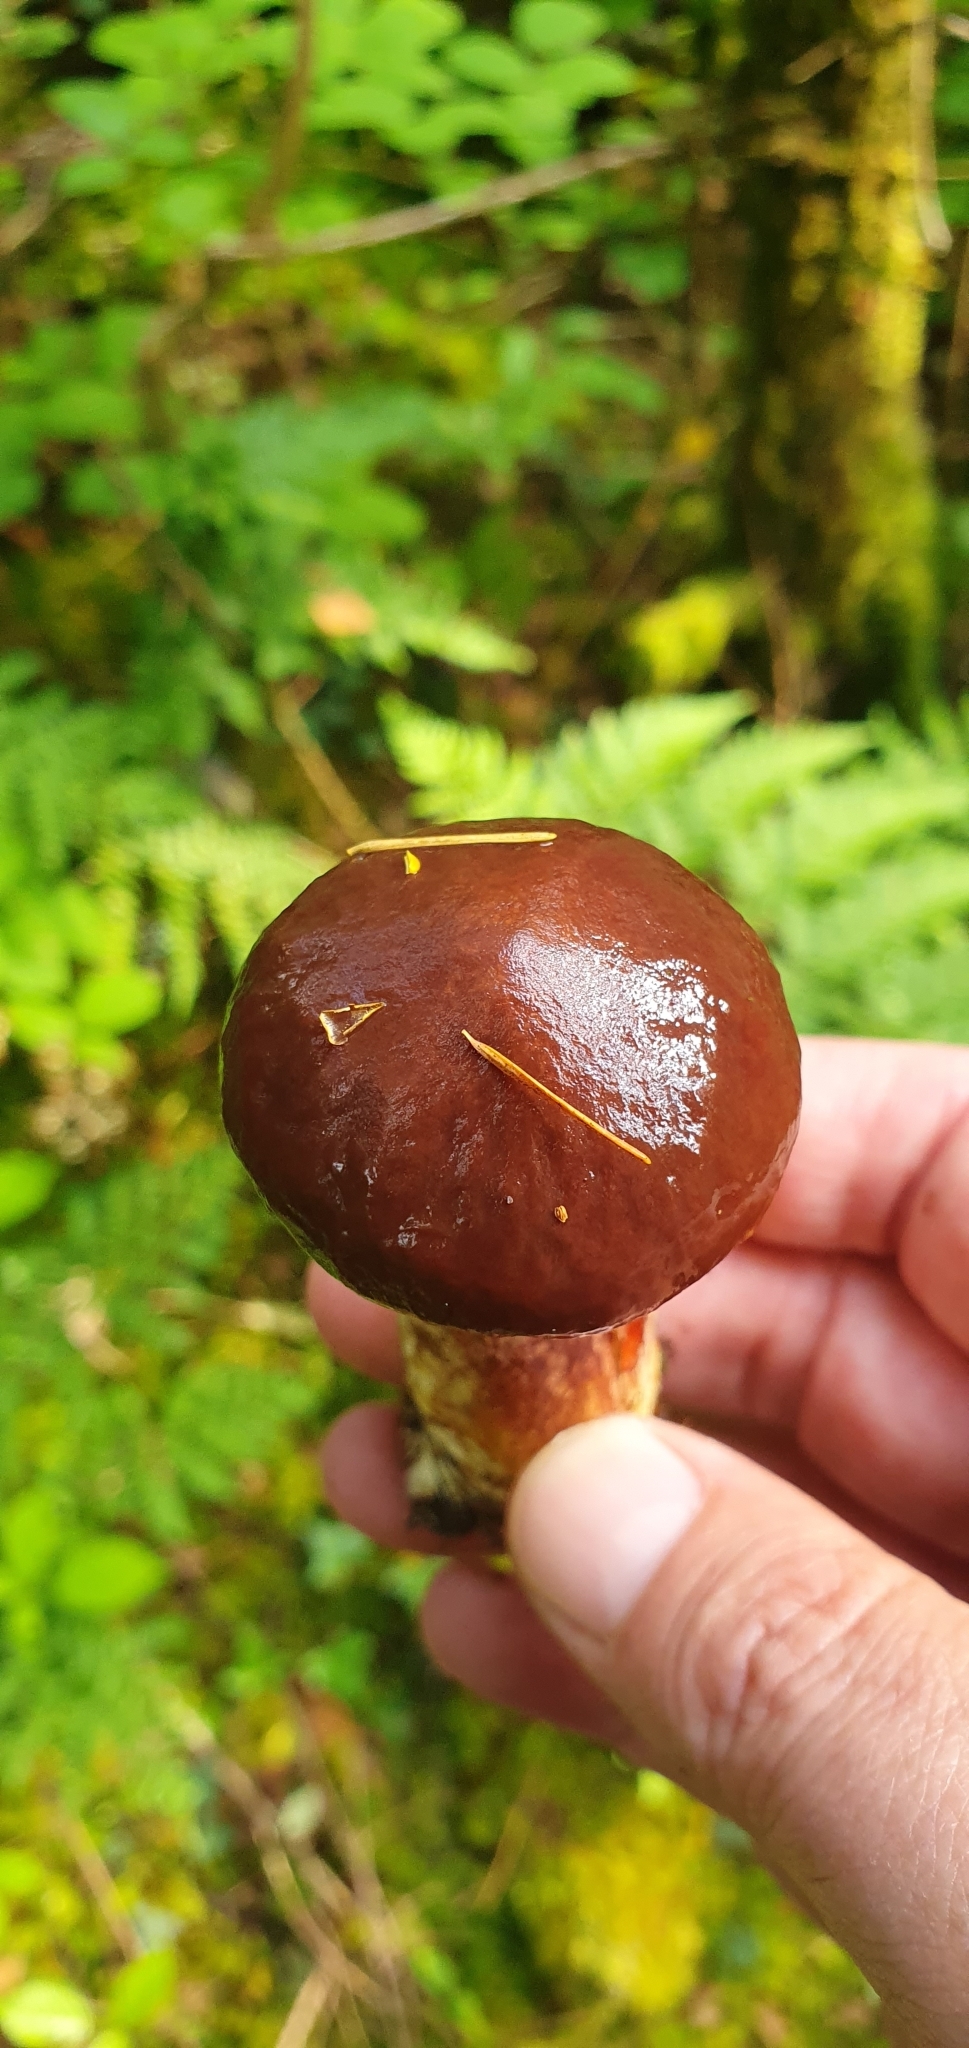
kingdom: Fungi
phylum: Basidiomycota
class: Agaricomycetes
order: Boletales
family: Suillaceae
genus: Suillus
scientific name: Suillus grevillei
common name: Larch bolete
